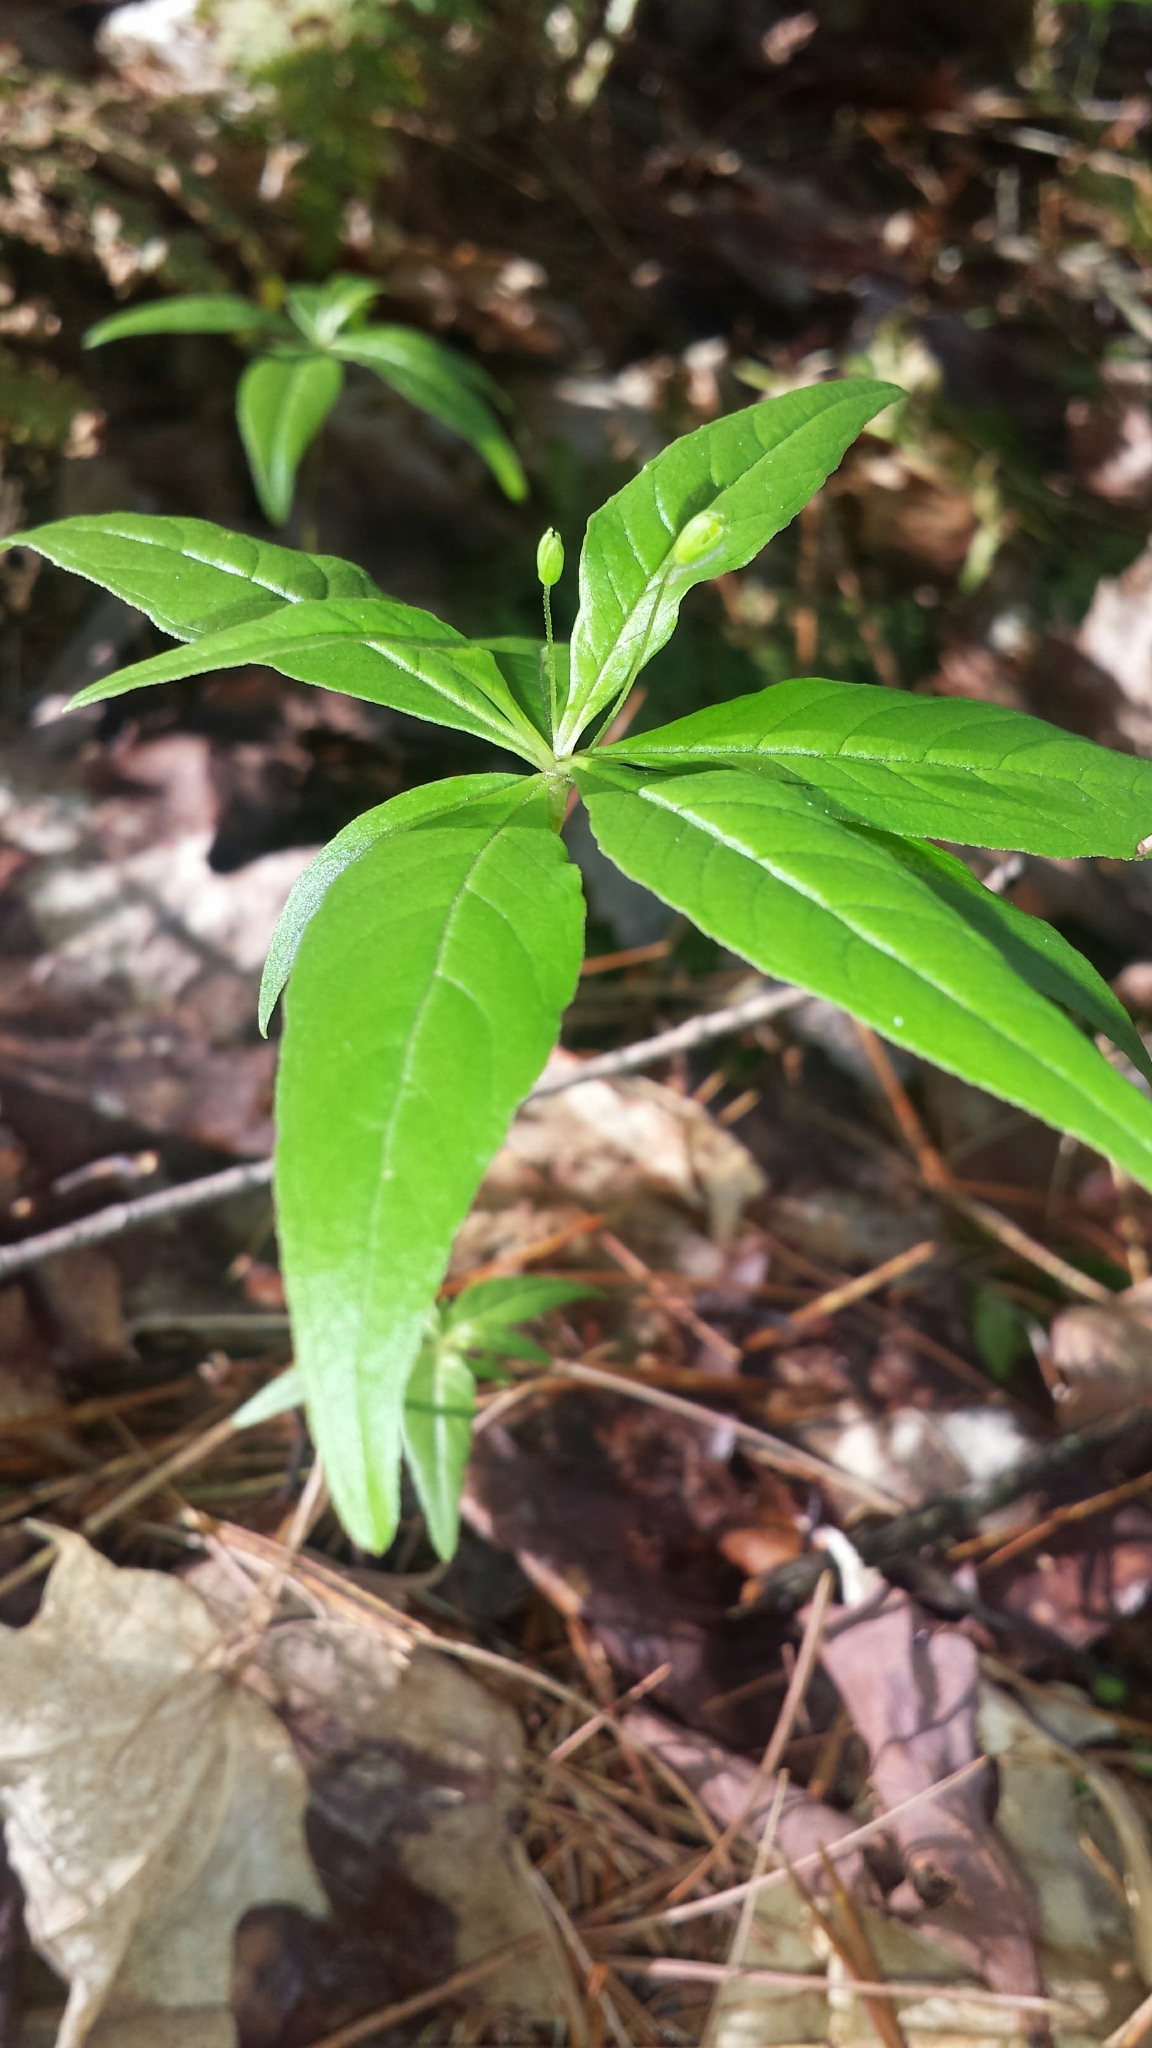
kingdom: Plantae
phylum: Tracheophyta
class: Magnoliopsida
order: Ericales
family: Primulaceae
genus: Lysimachia
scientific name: Lysimachia borealis
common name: American starflower
